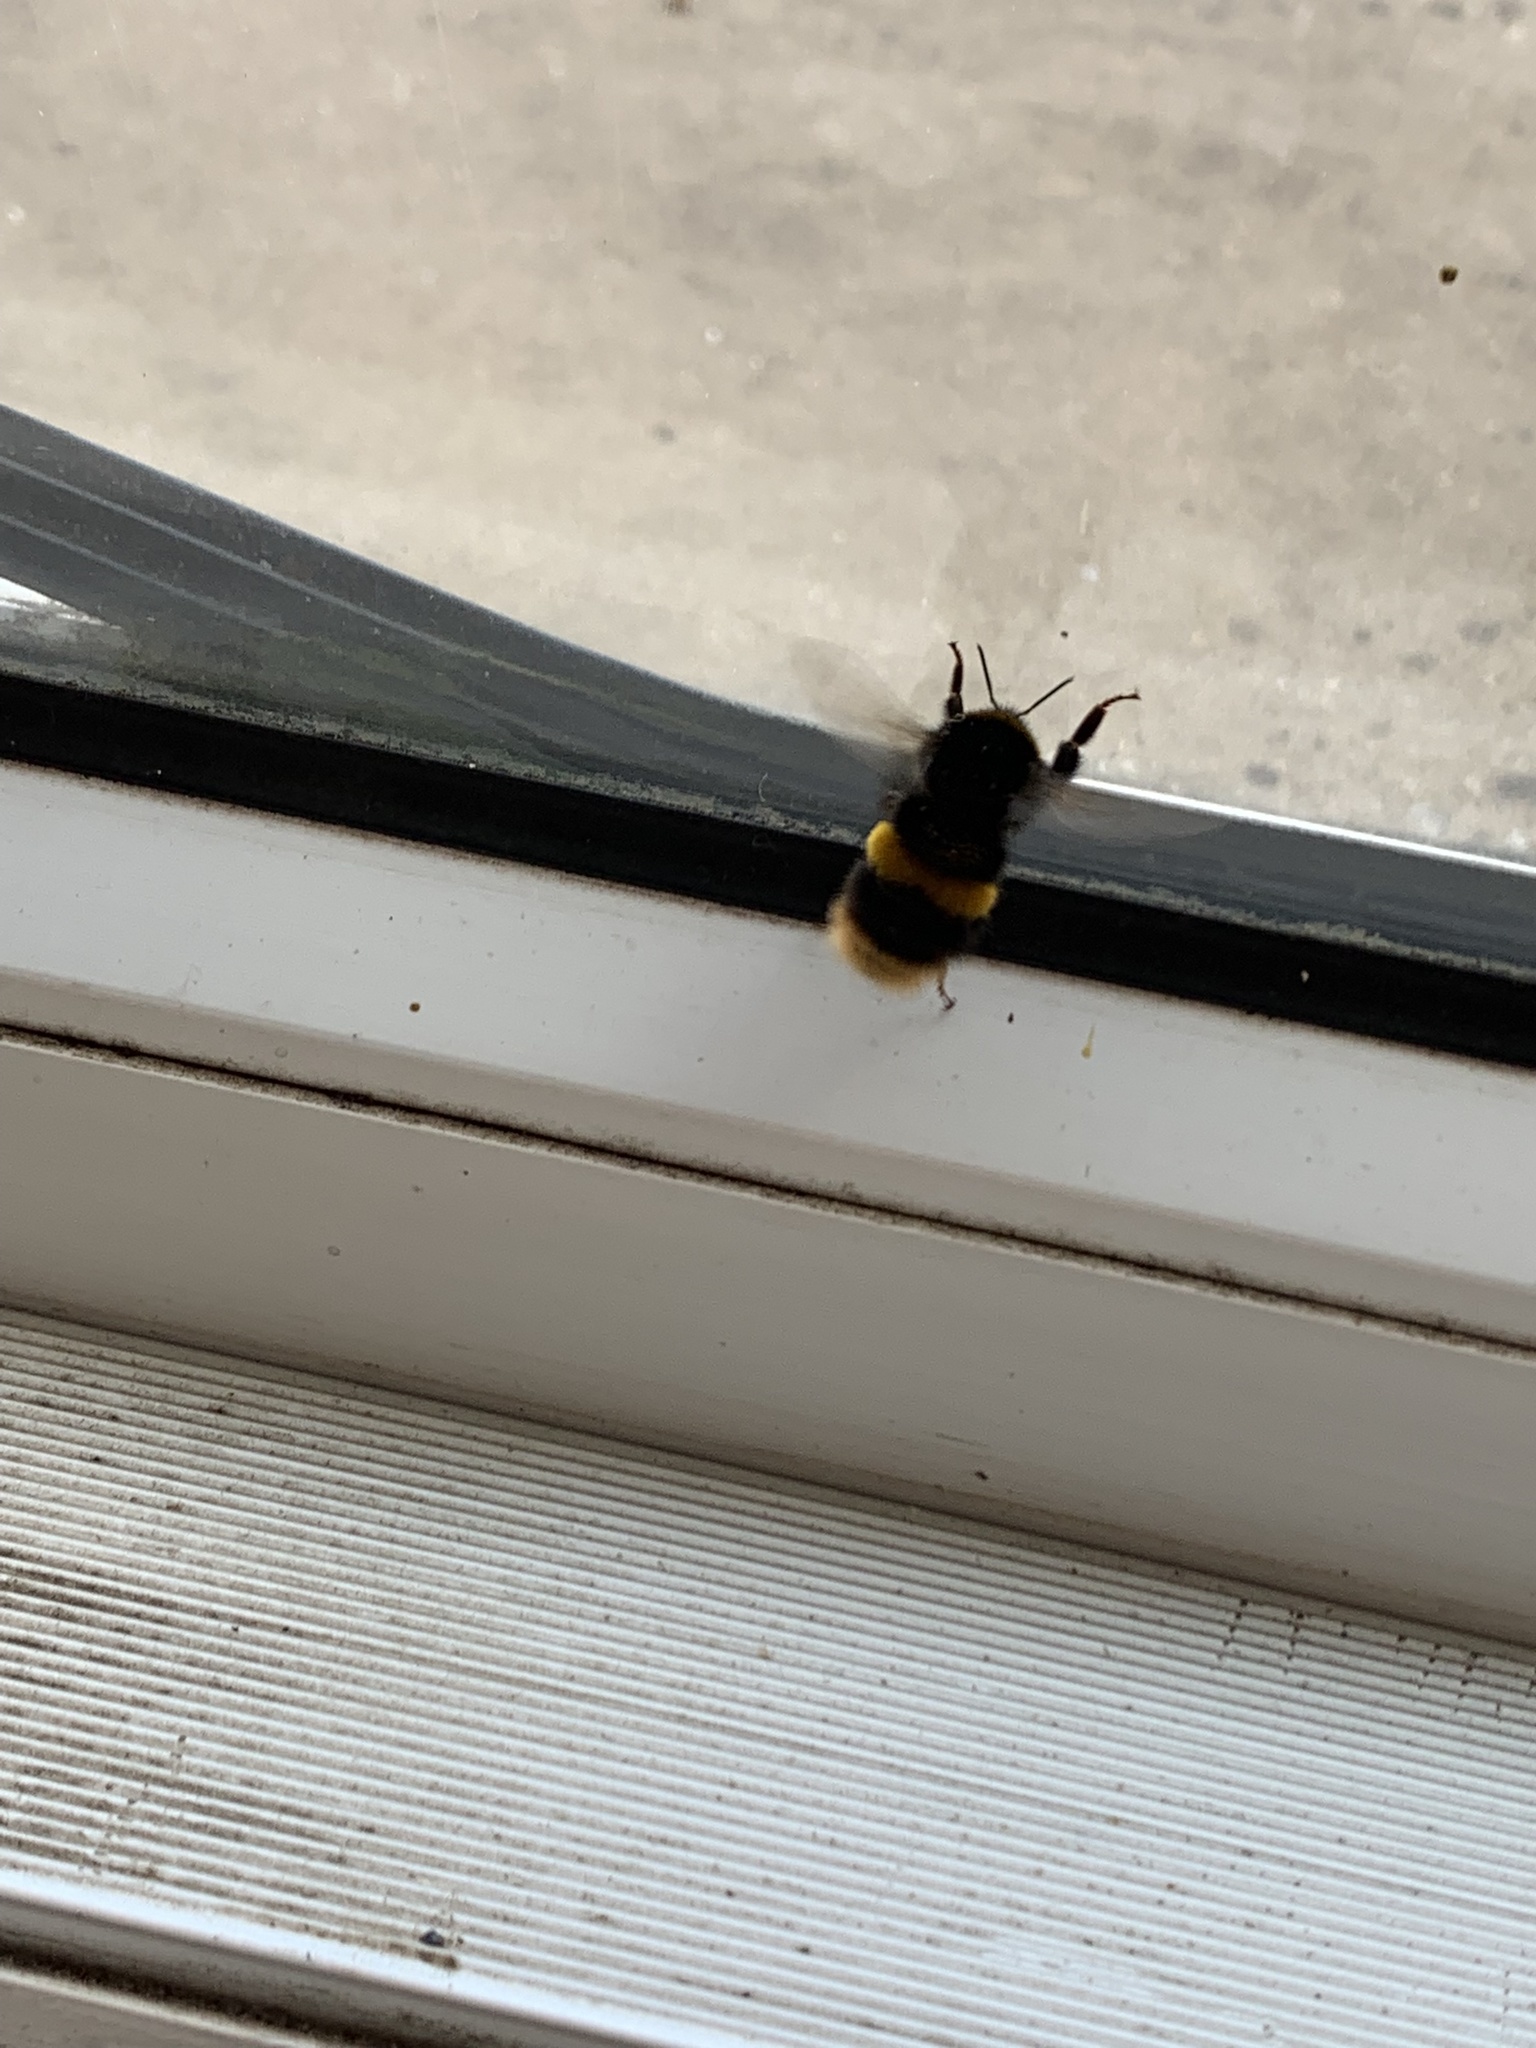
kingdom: Animalia
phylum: Arthropoda
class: Insecta
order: Hymenoptera
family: Apidae
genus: Bombus
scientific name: Bombus terrestris
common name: Buff-tailed bumblebee
